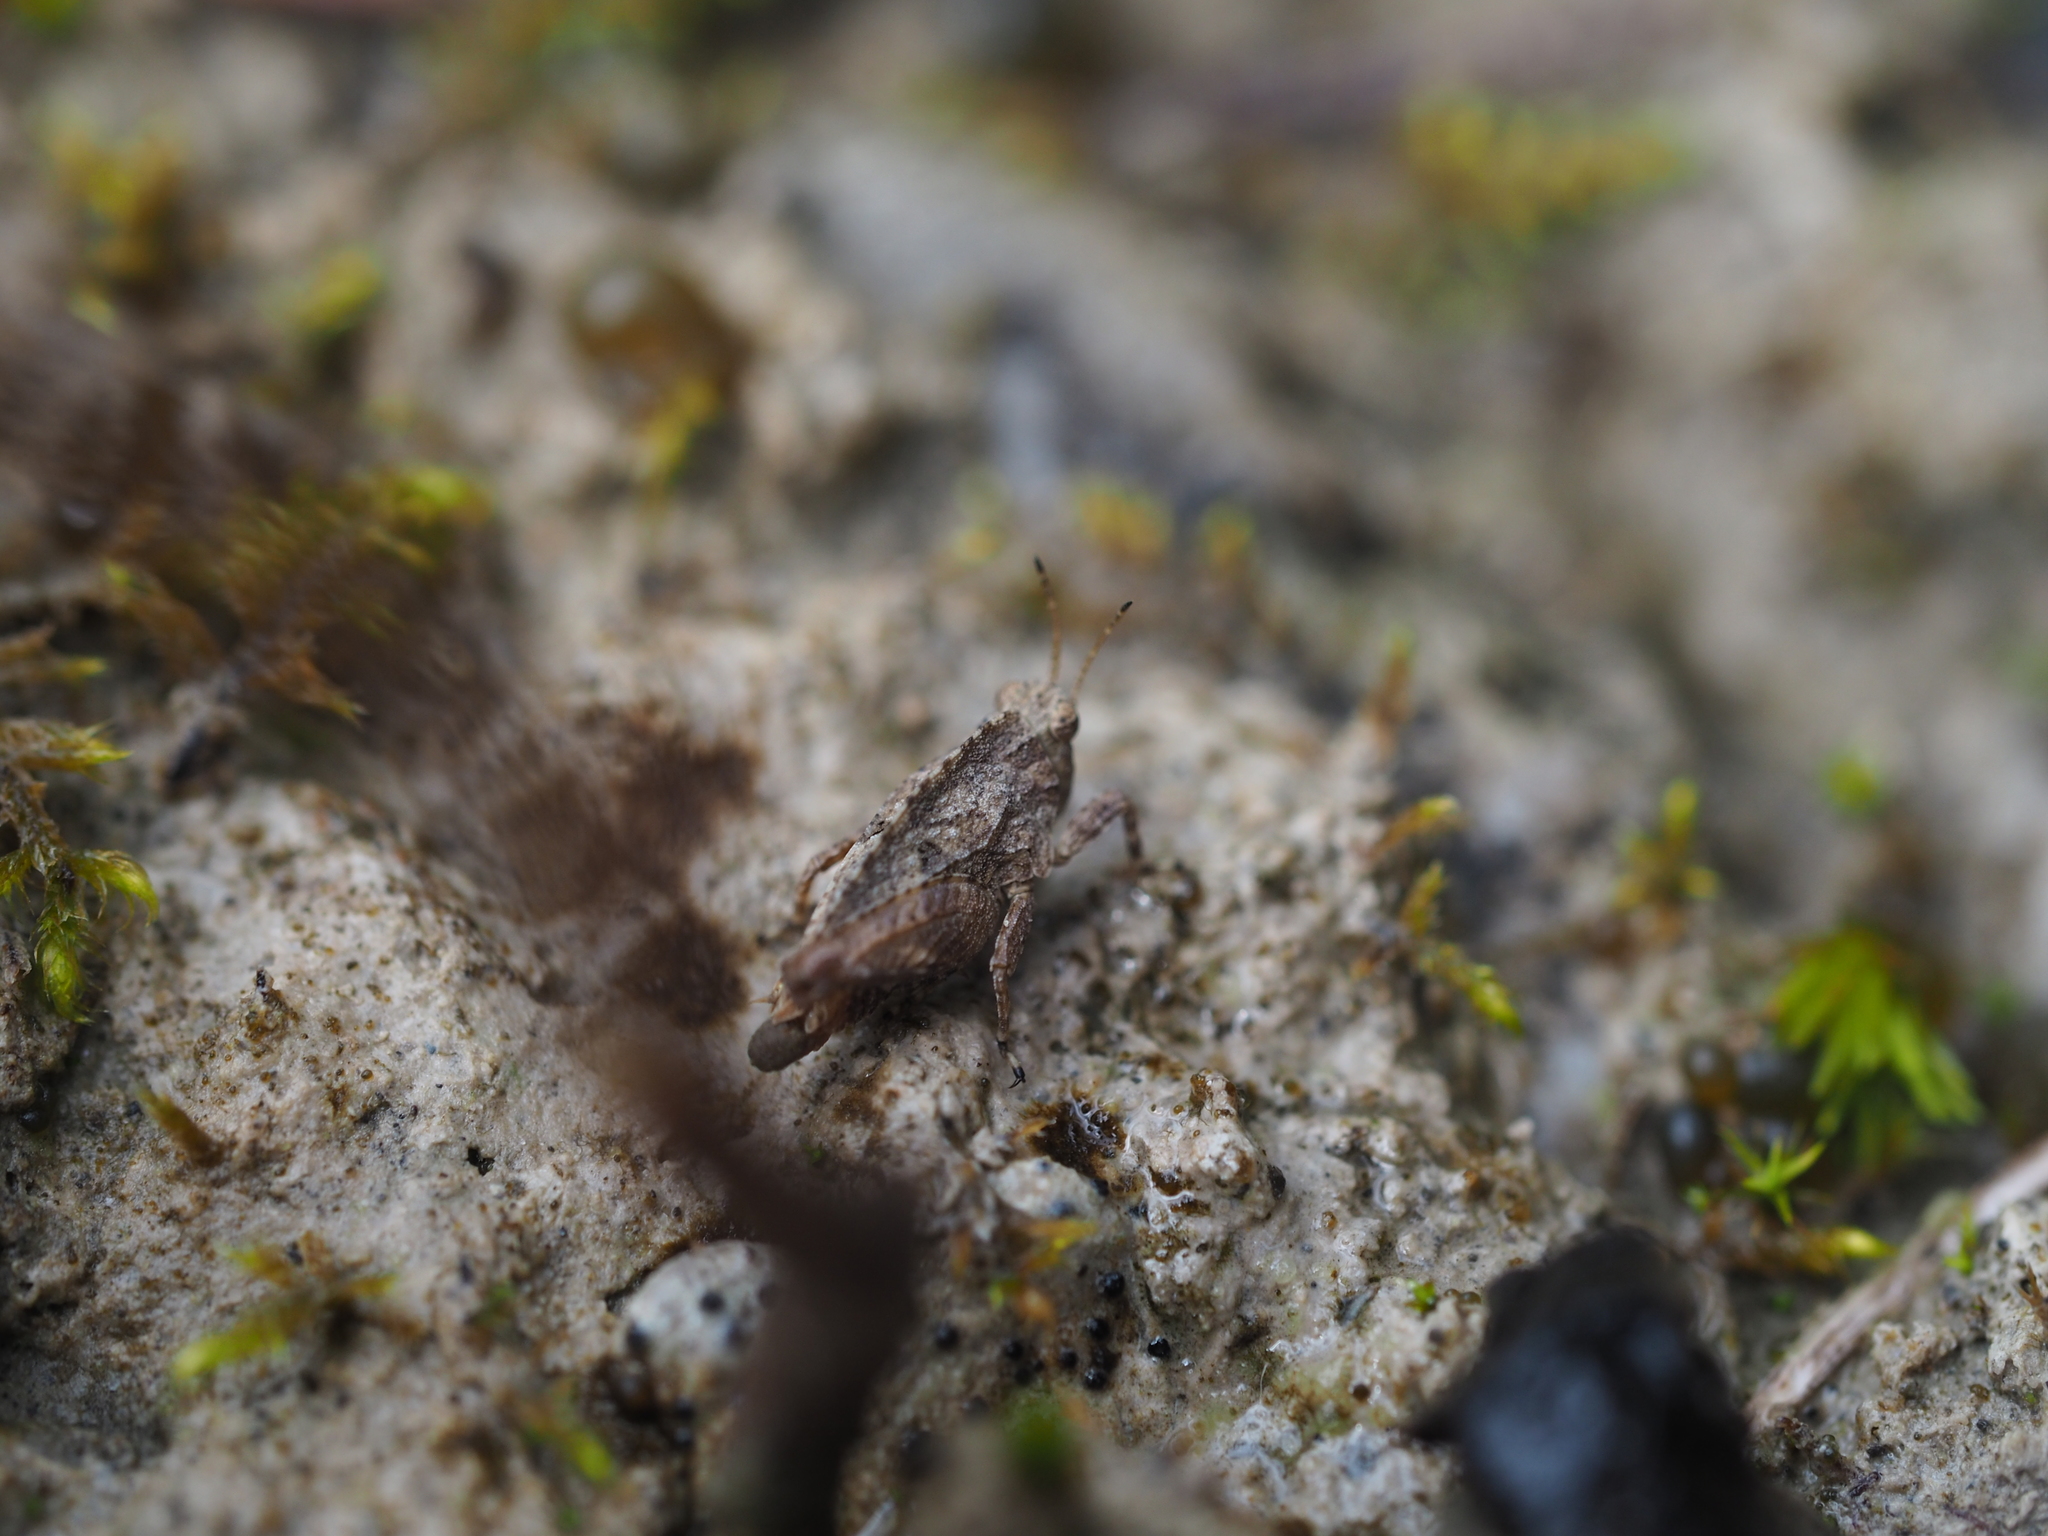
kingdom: Animalia
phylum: Arthropoda
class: Insecta
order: Orthoptera
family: Tetrigidae
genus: Tetrix
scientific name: Tetrix tenuicornis
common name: Long-horned groundhopper
